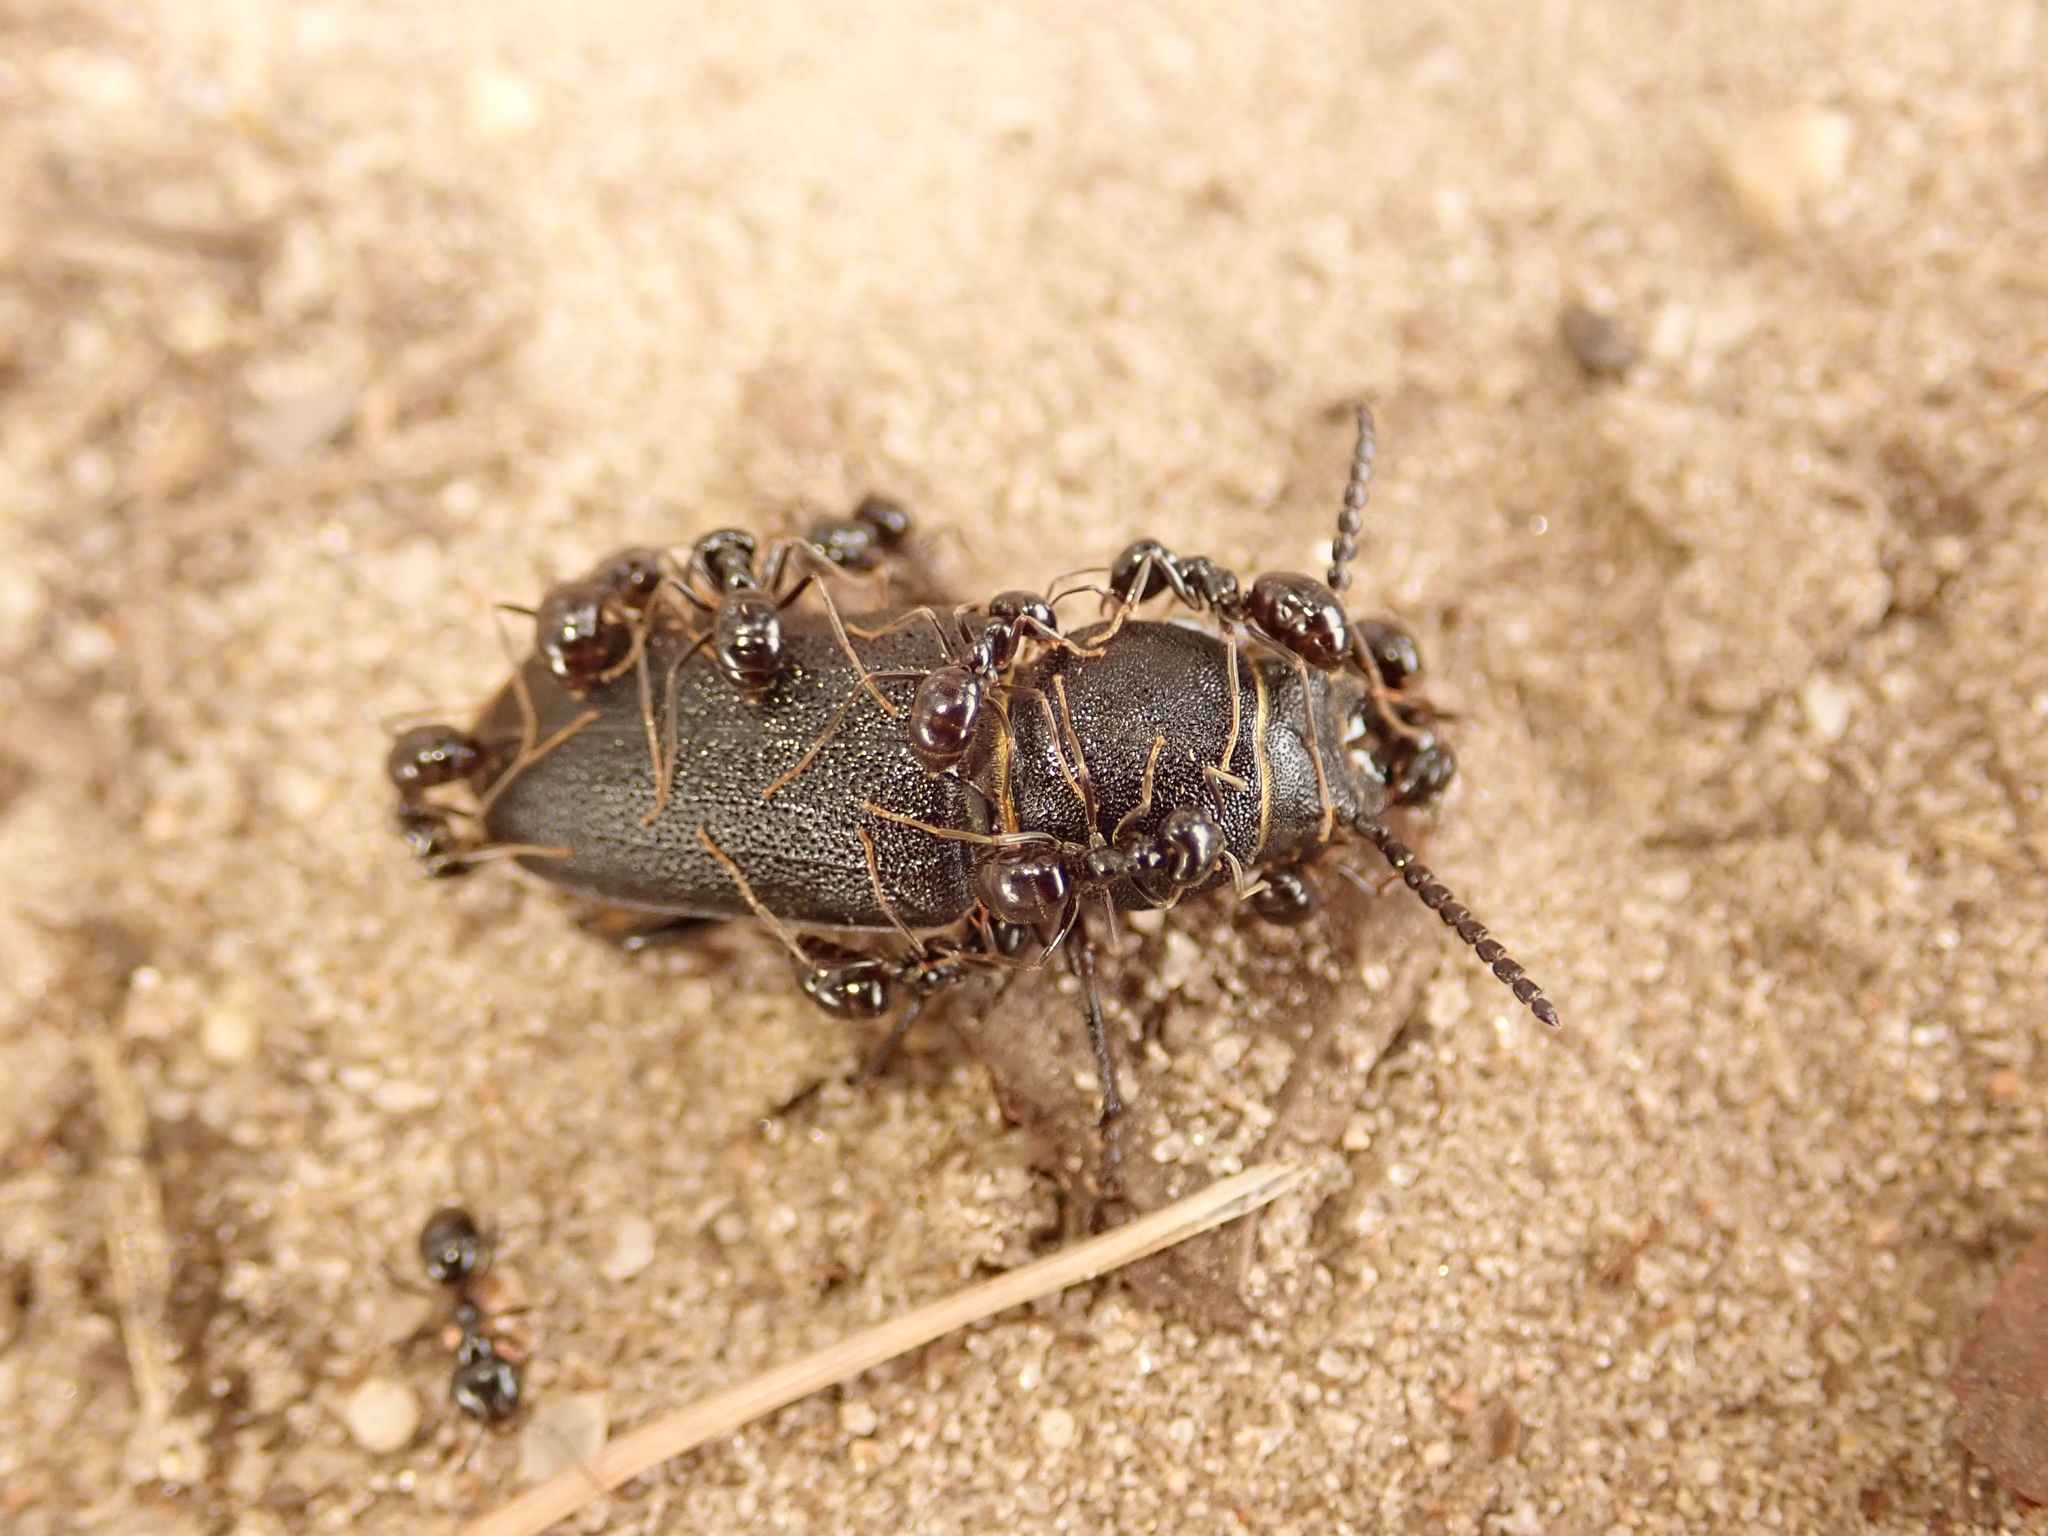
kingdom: Animalia
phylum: Arthropoda
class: Insecta
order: Hymenoptera
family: Formicidae
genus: Lasius
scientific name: Lasius fuliginosus
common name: Jet ant
